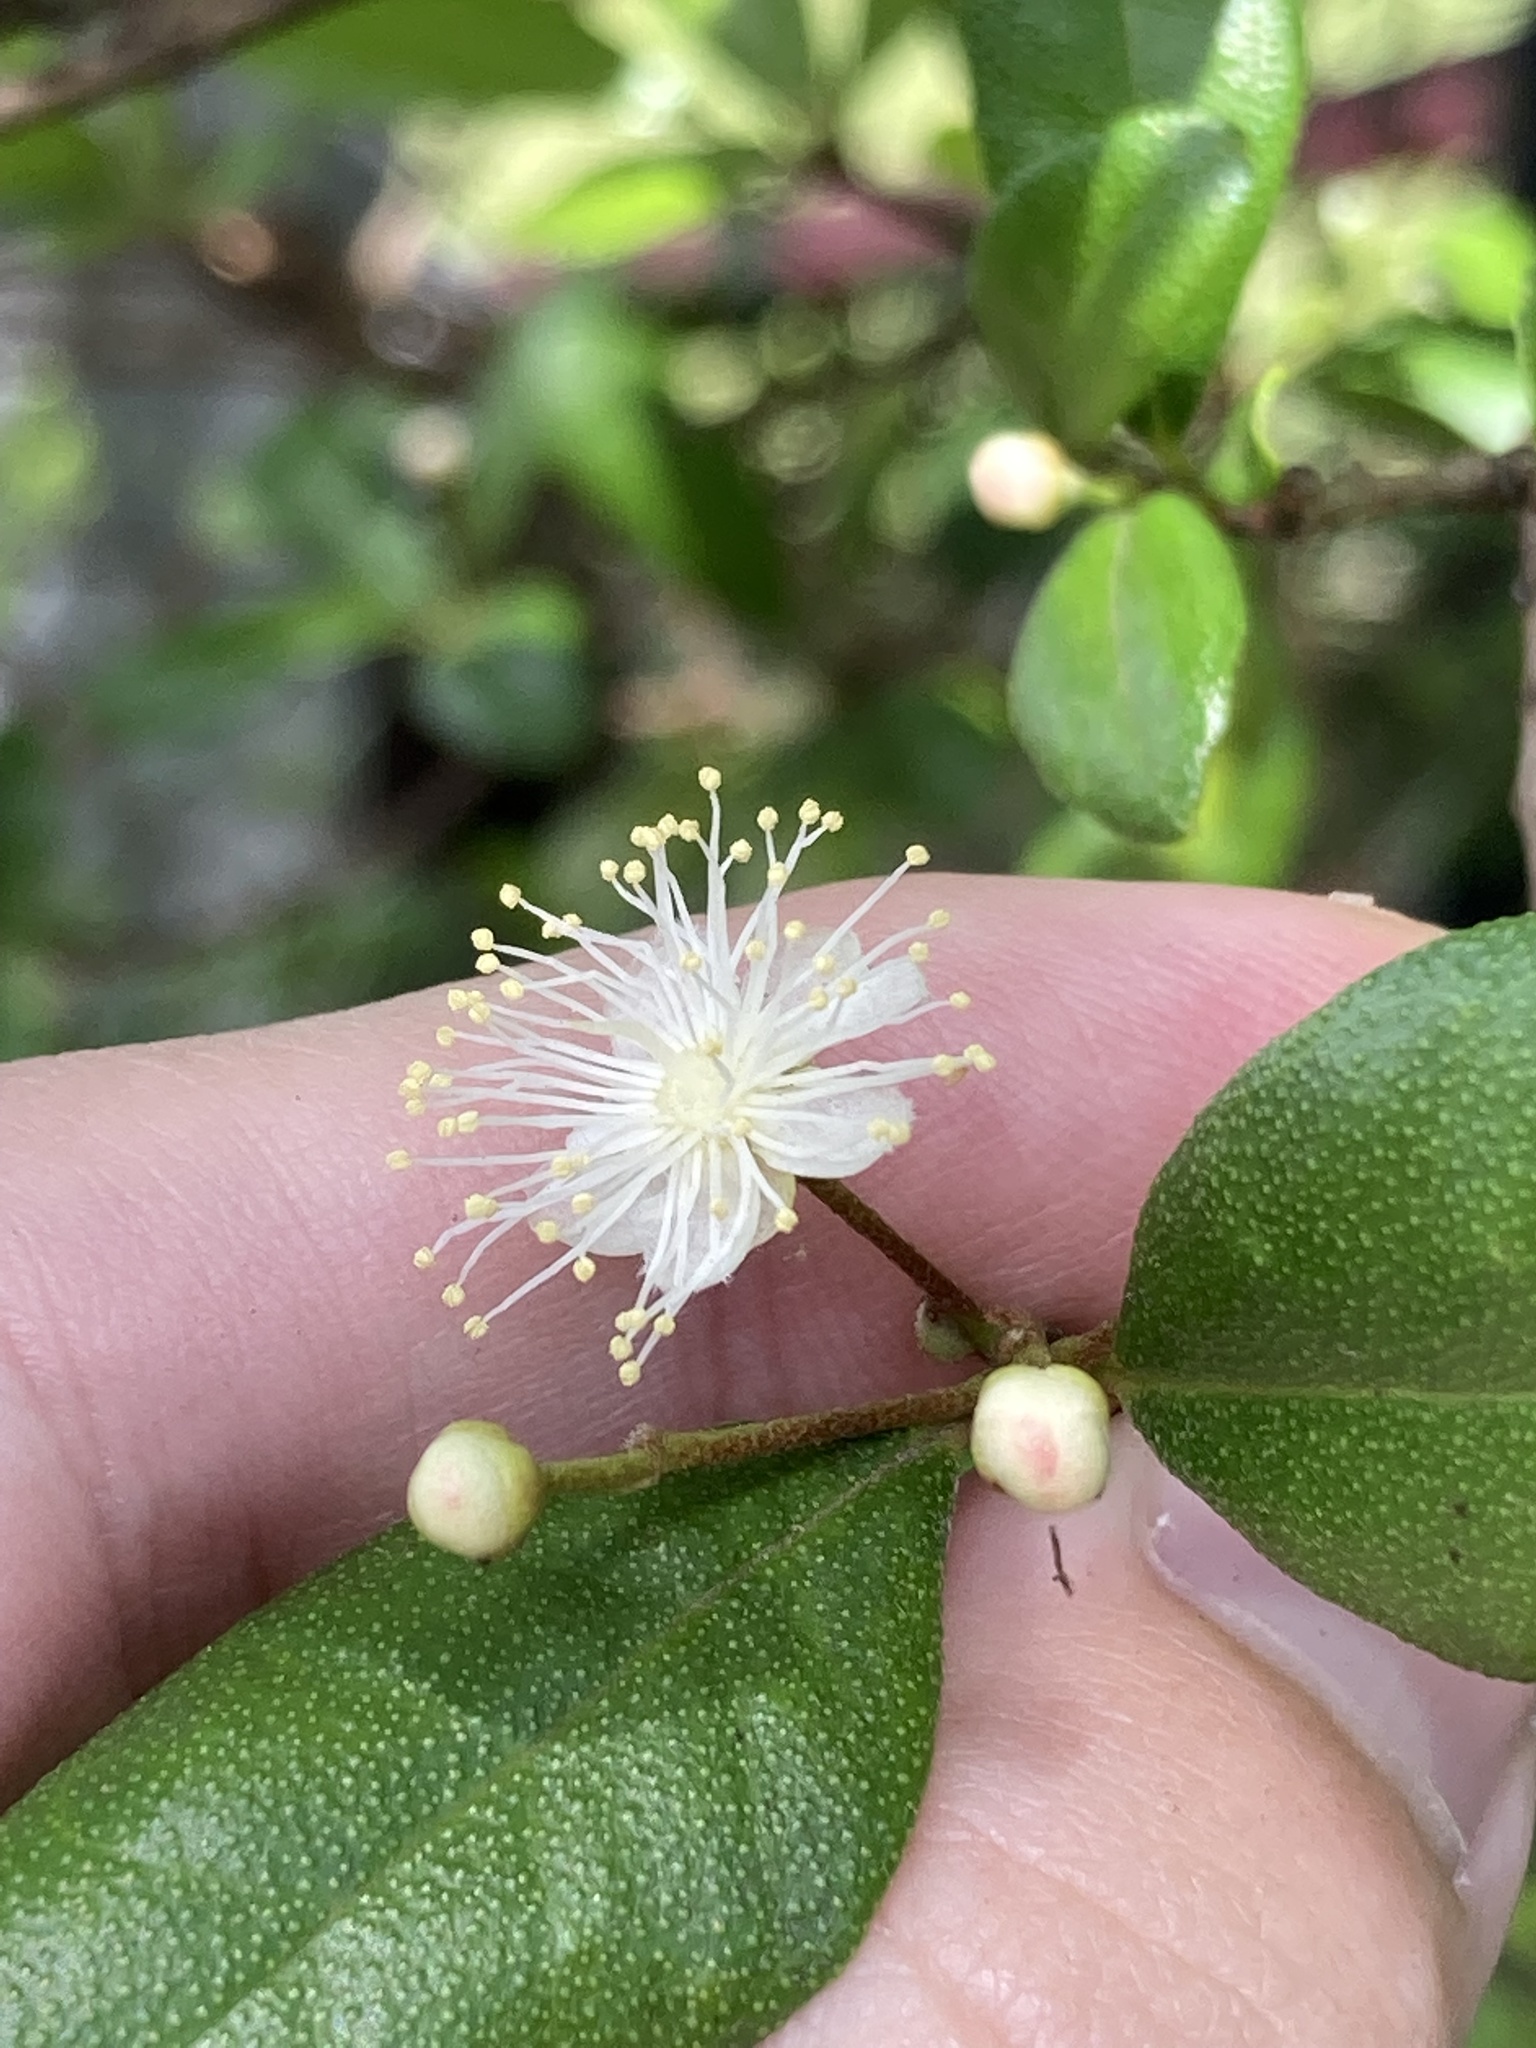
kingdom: Plantae
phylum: Tracheophyta
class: Magnoliopsida
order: Myrtales
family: Myrtaceae
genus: Myrcianthes
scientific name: Myrcianthes fragrans
